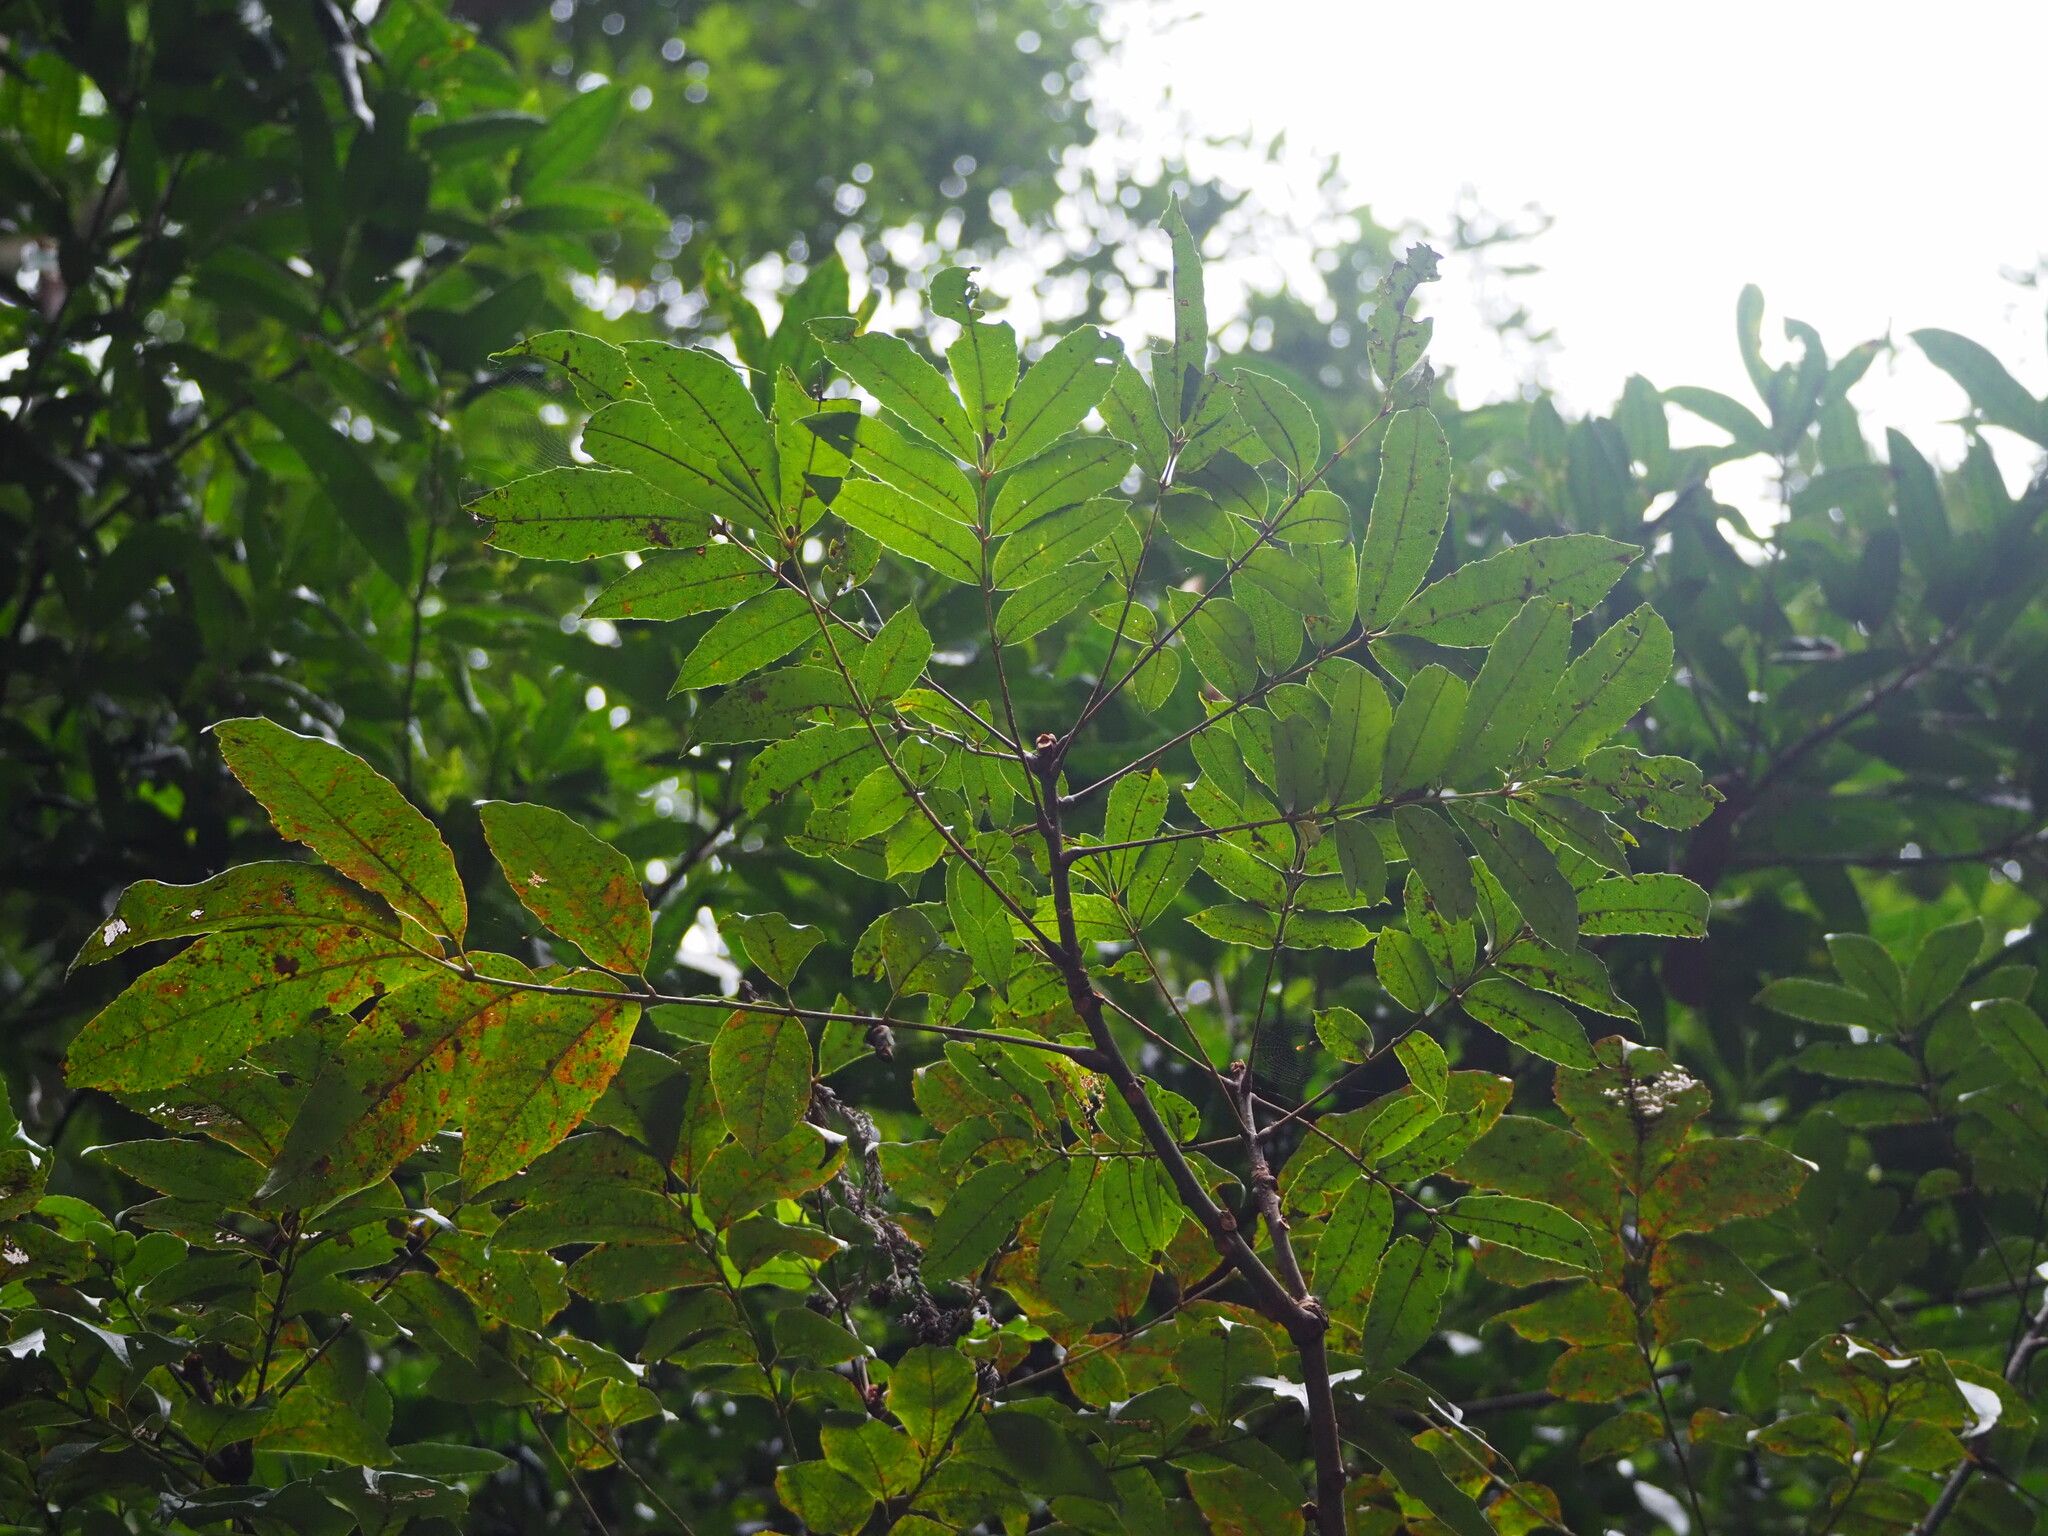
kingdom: Plantae
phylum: Tracheophyta
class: Magnoliopsida
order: Proteales
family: Sabiaceae
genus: Meliosma
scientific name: Meliosma rhoifolia
